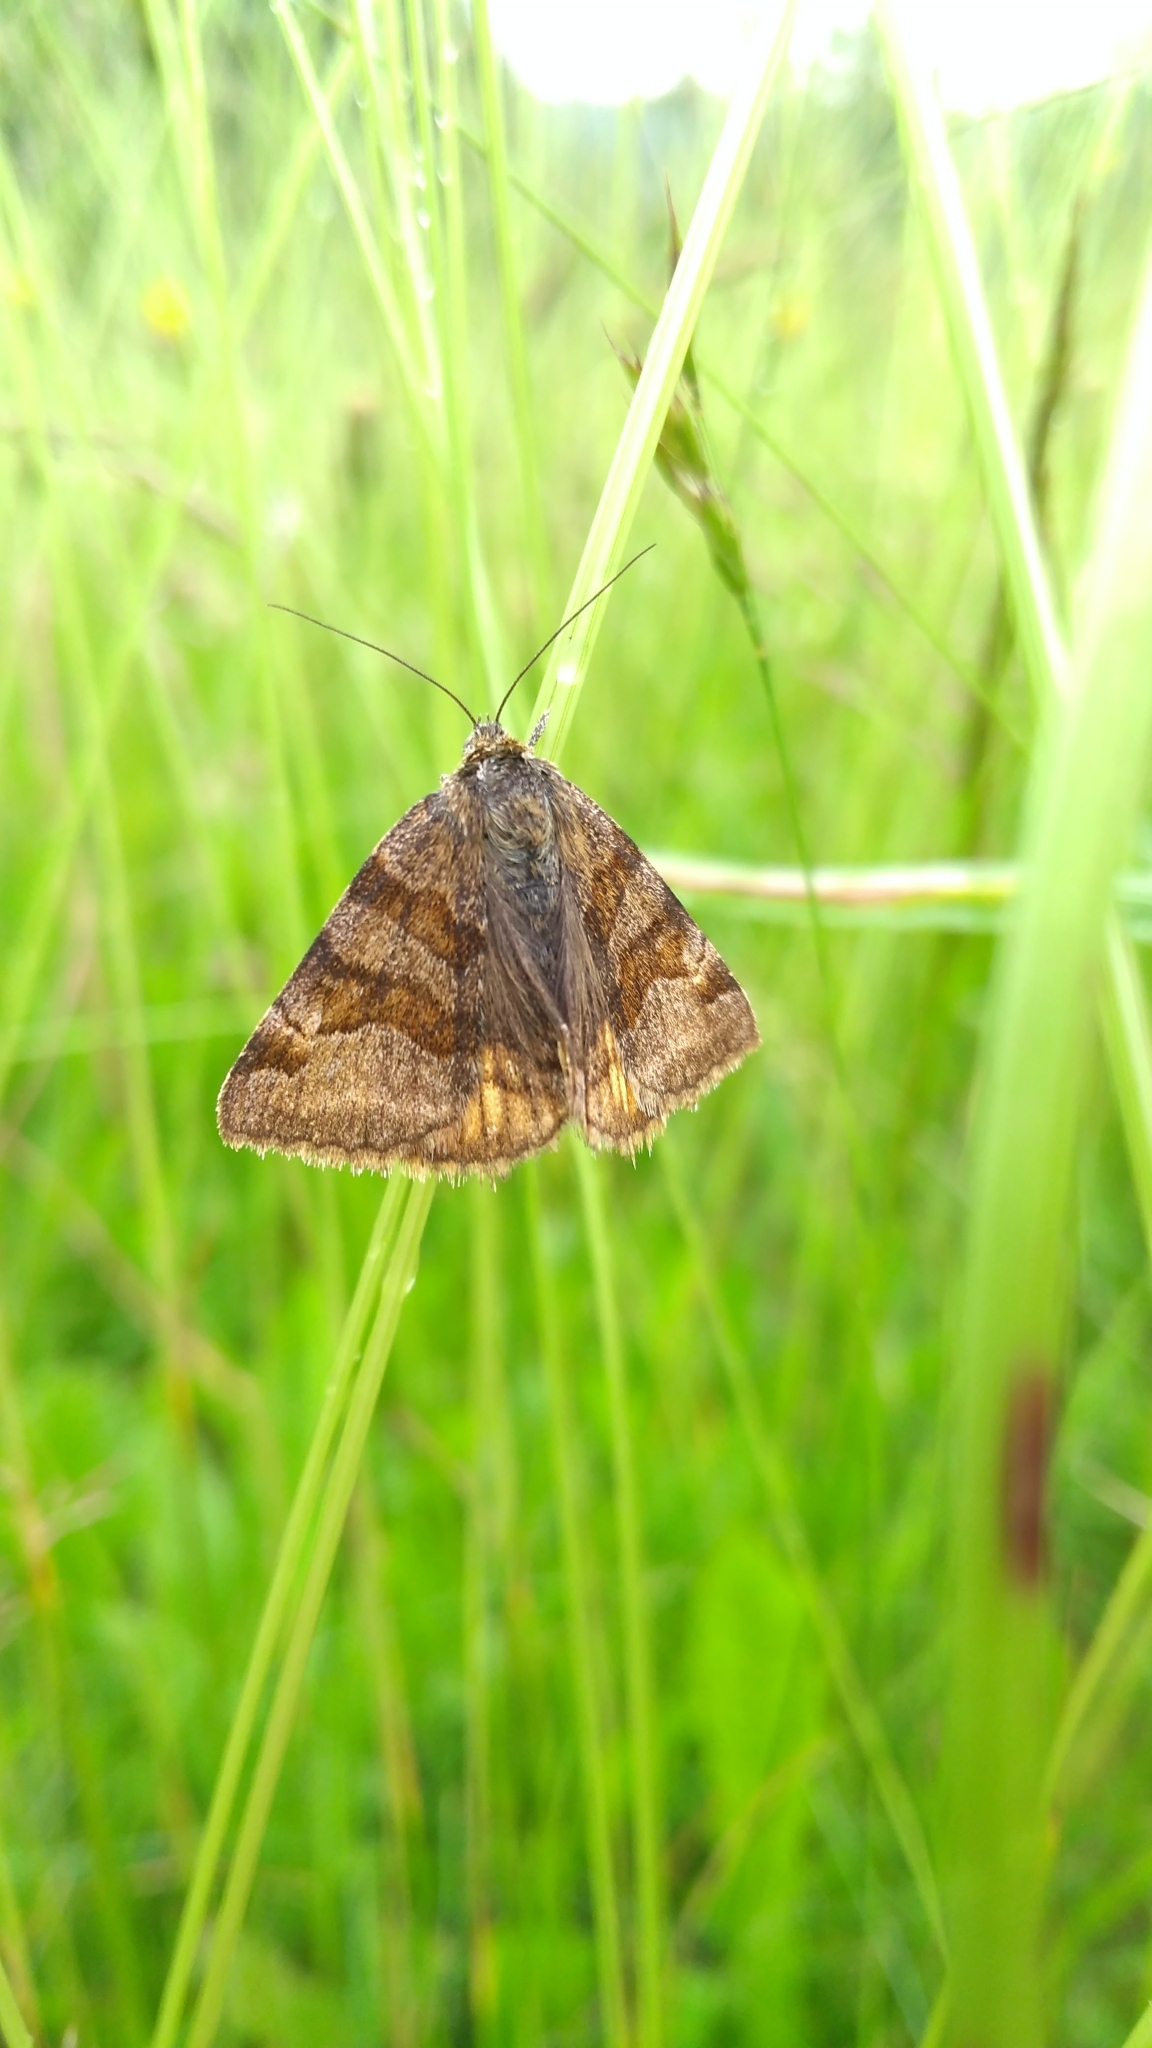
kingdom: Animalia
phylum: Arthropoda
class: Insecta
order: Lepidoptera
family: Erebidae
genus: Euclidia
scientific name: Euclidia glyphica
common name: Burnet companion
